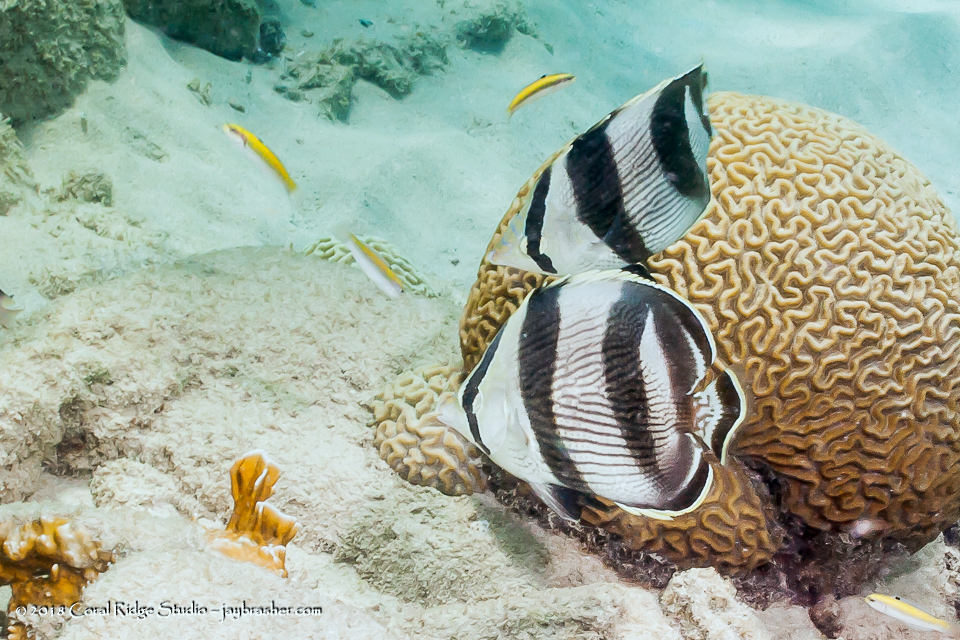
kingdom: Animalia
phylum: Chordata
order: Perciformes
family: Chaetodontidae
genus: Chaetodon
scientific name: Chaetodon striatus
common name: Banded butterflyfish
